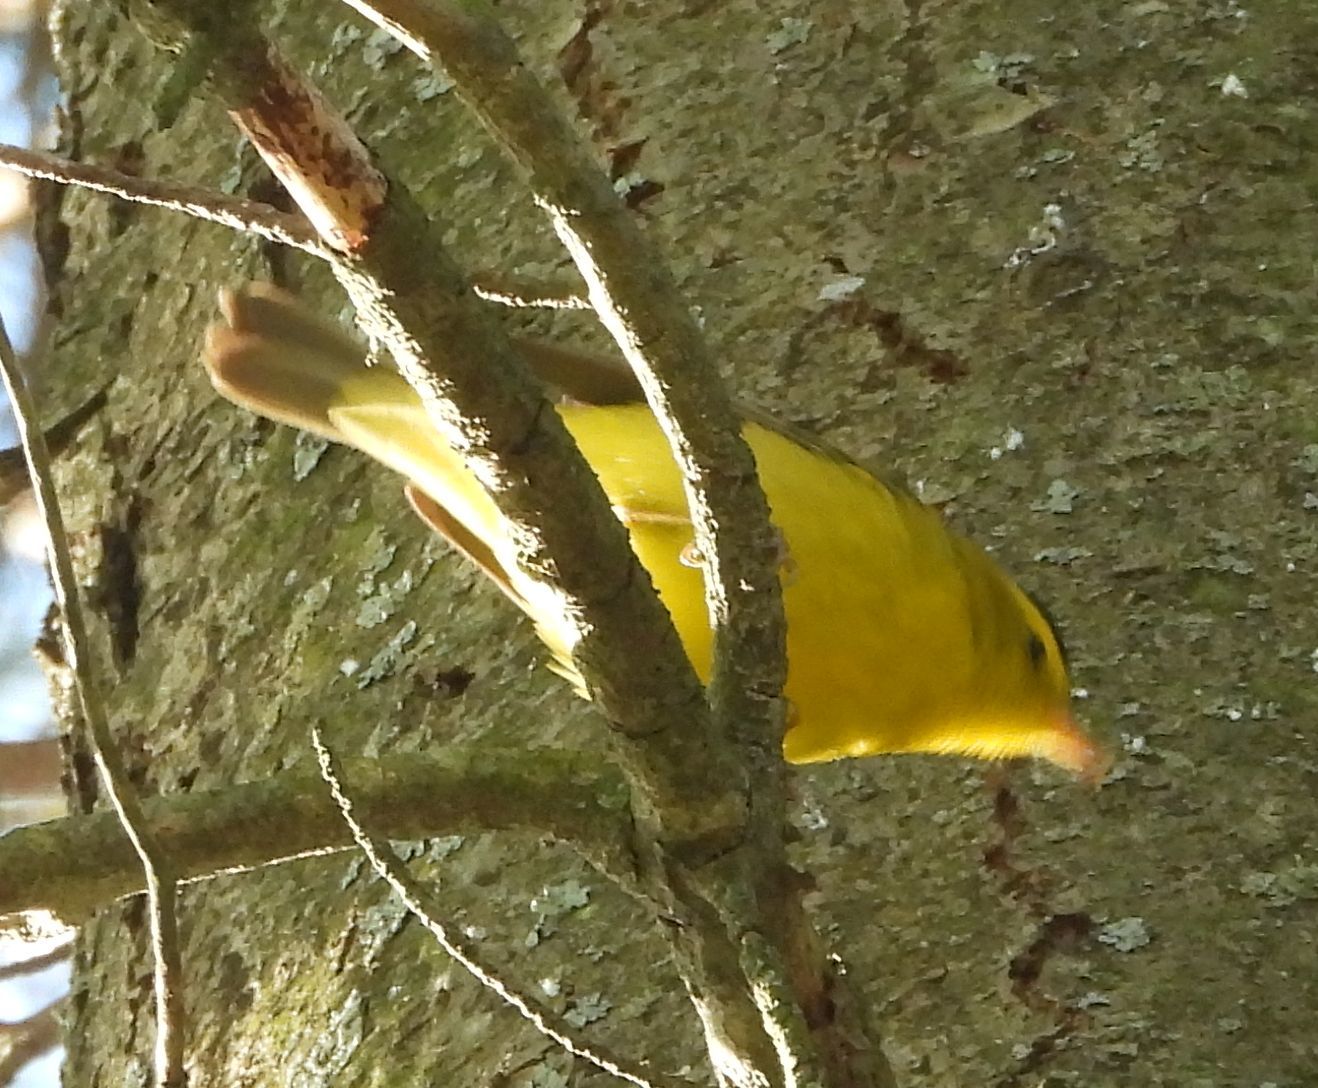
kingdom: Animalia
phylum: Chordata
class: Aves
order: Passeriformes
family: Parulidae
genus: Cardellina
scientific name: Cardellina pusilla
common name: Wilson's warbler
